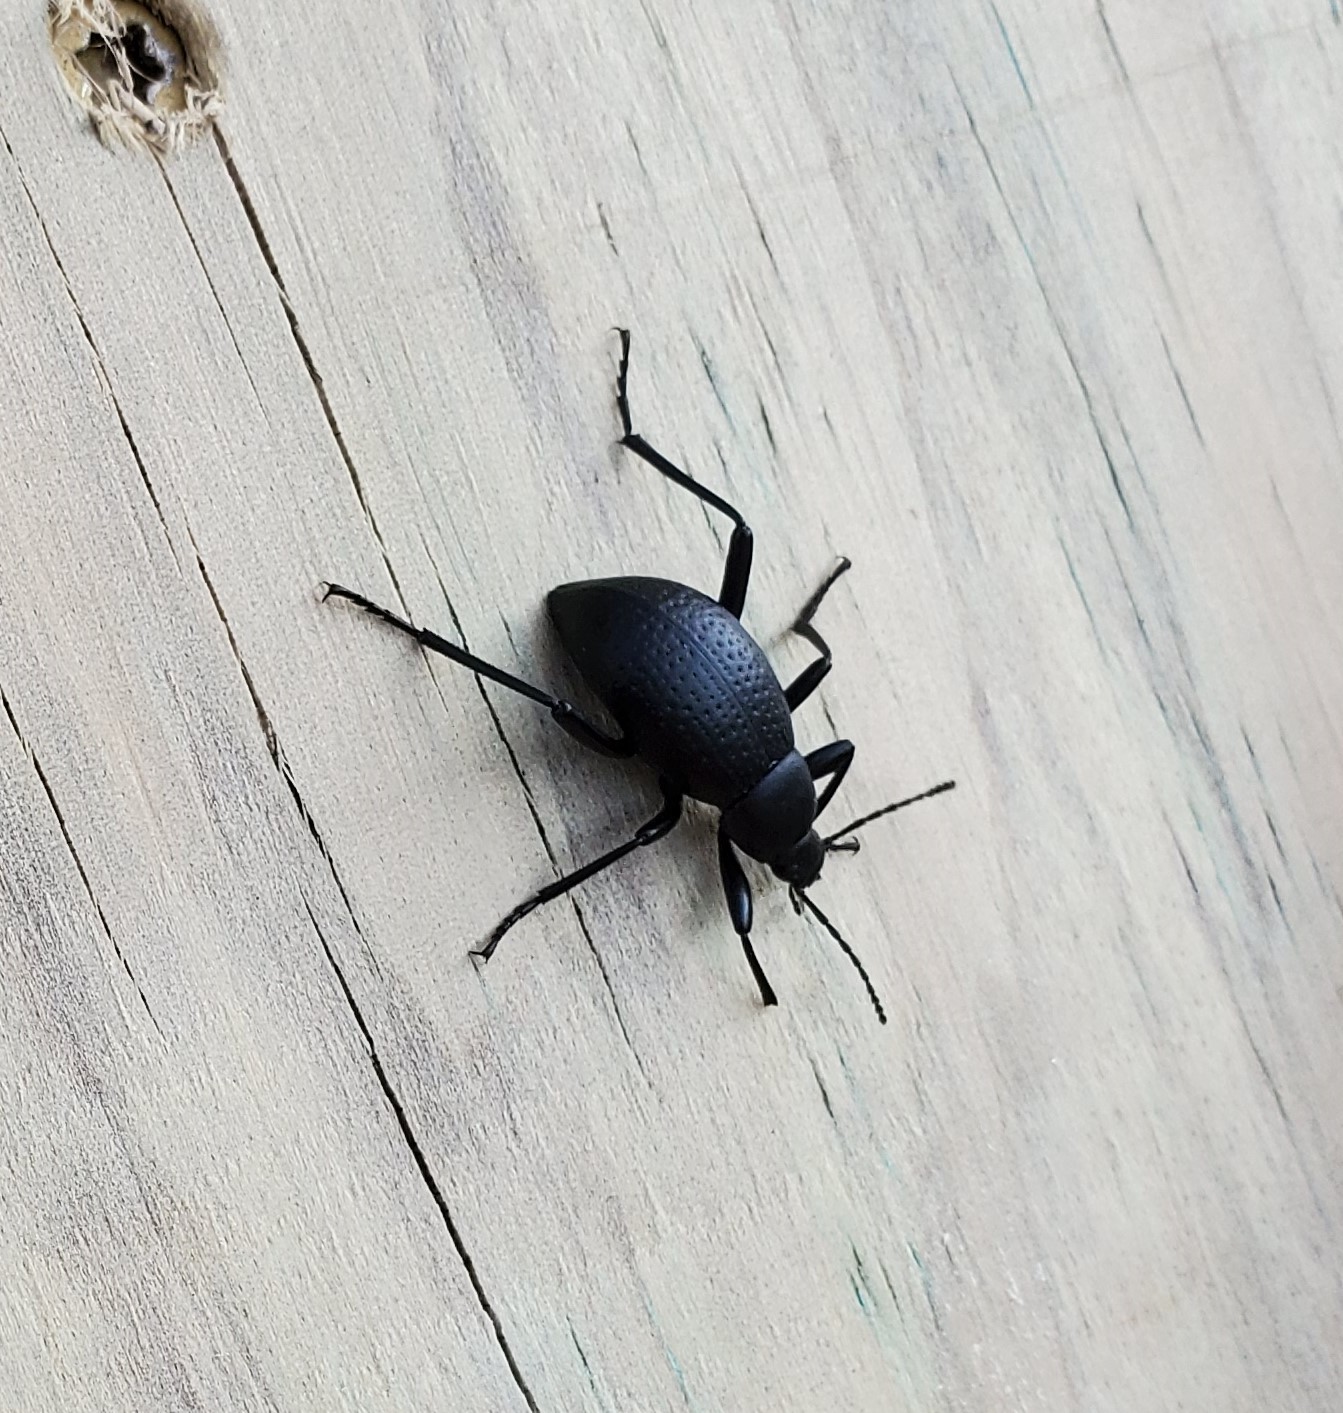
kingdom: Animalia
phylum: Arthropoda
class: Insecta
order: Coleoptera
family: Tenebrionidae
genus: Eleodes
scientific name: Eleodes goryi
